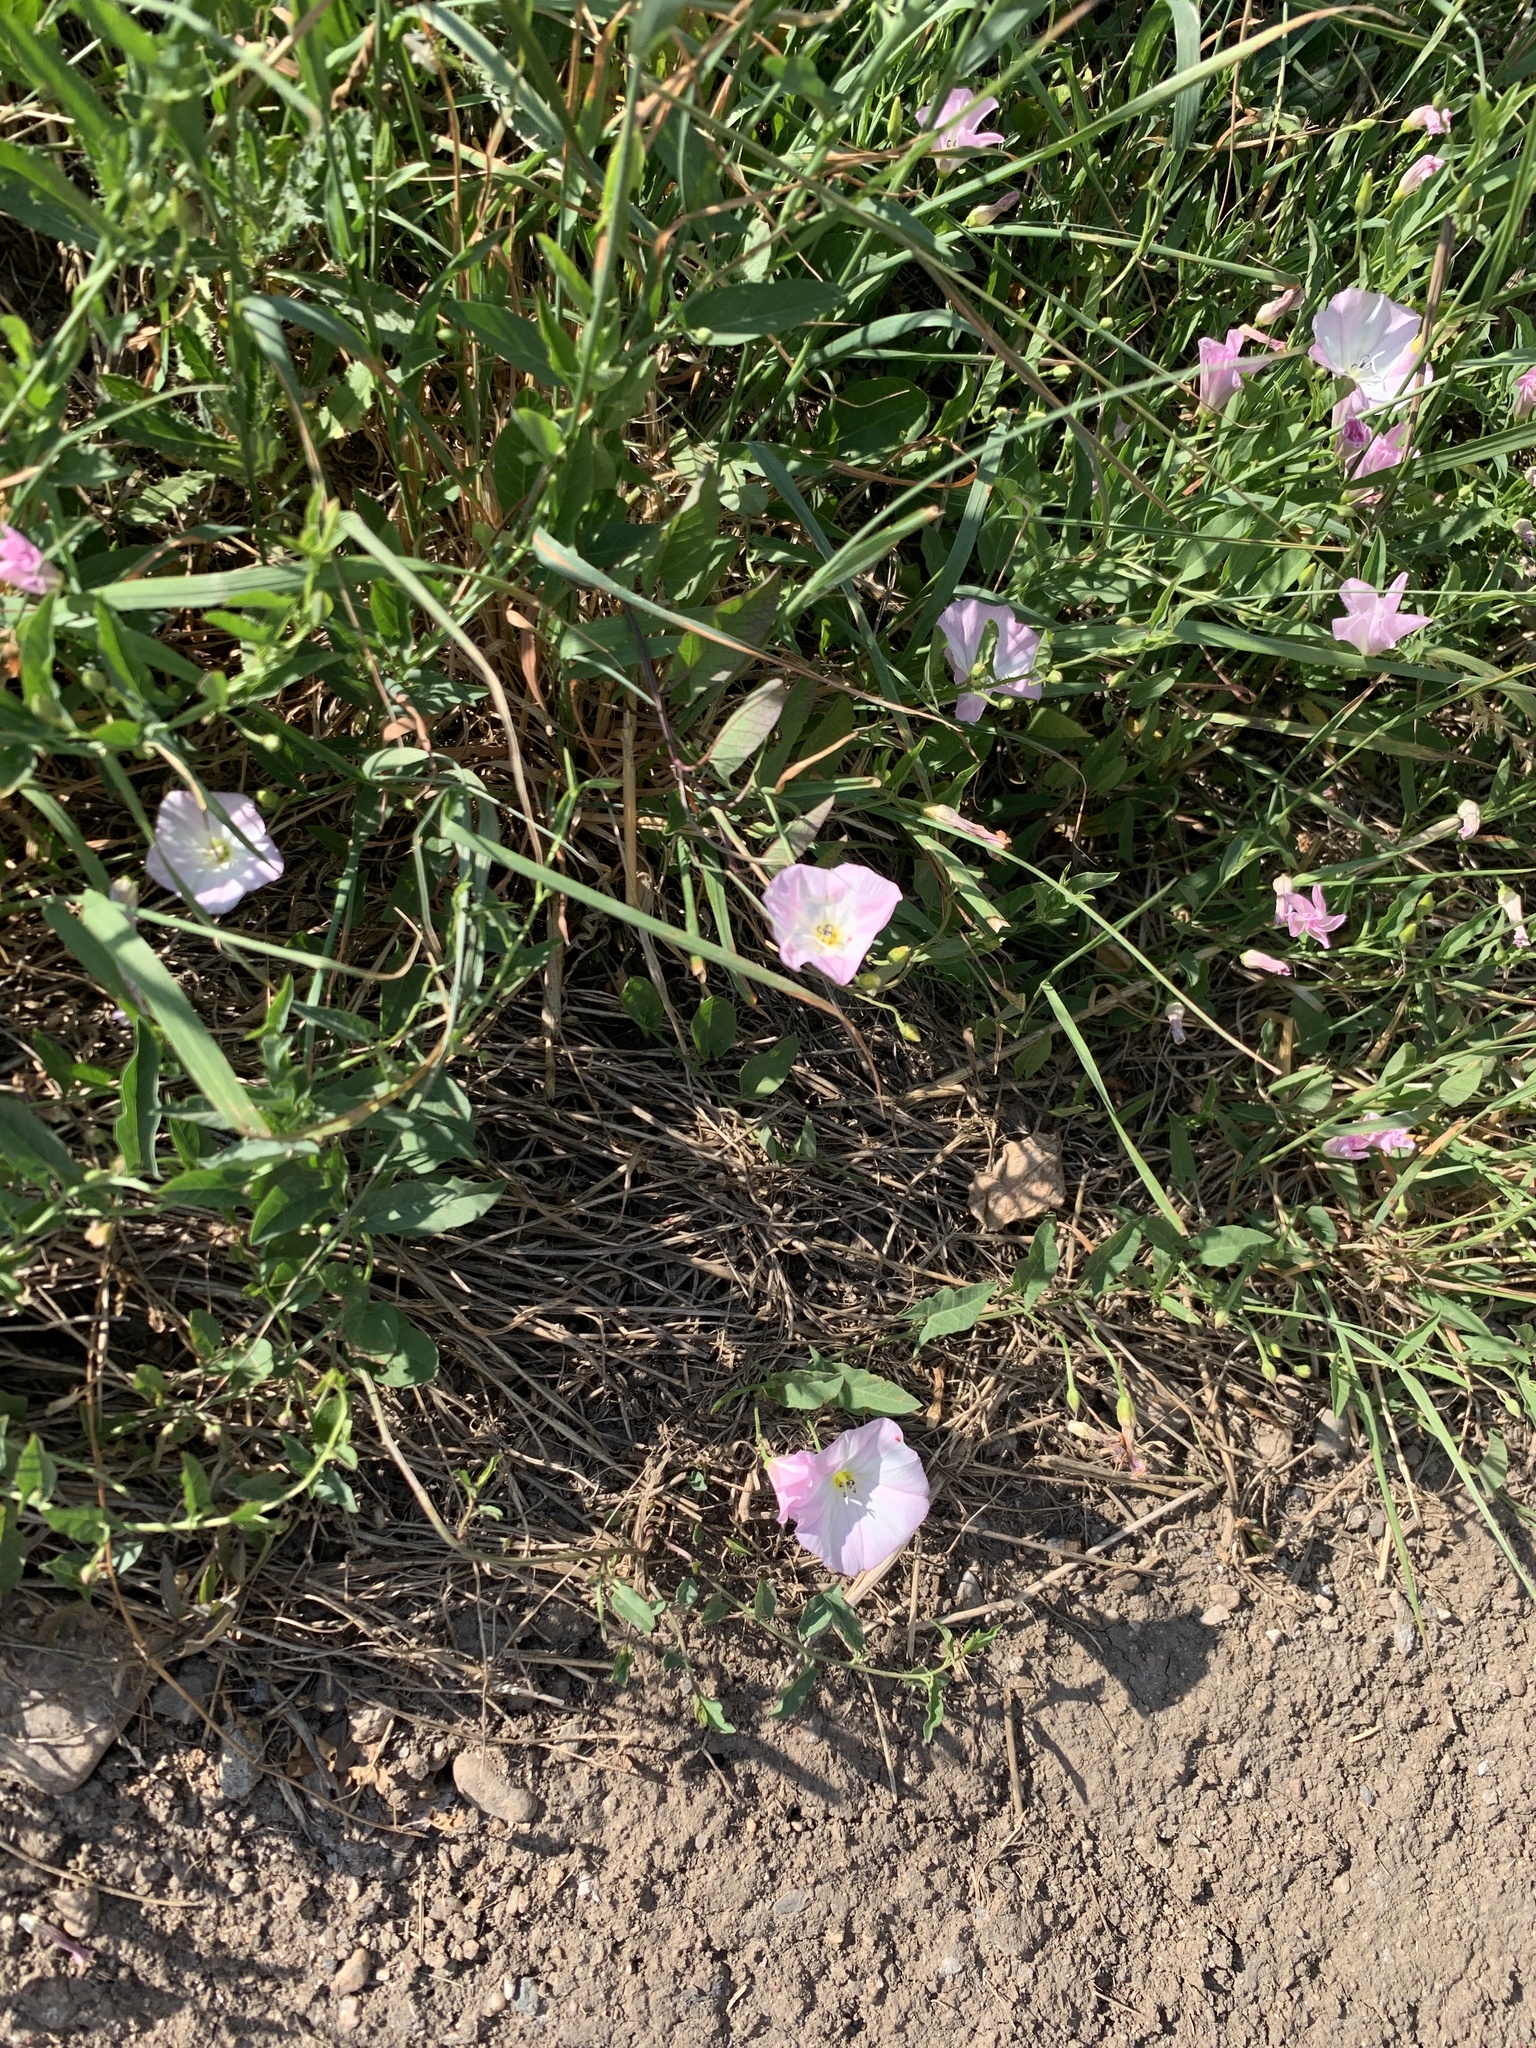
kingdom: Plantae
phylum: Tracheophyta
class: Magnoliopsida
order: Solanales
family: Convolvulaceae
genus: Convolvulus
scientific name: Convolvulus arvensis
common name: Field bindweed
